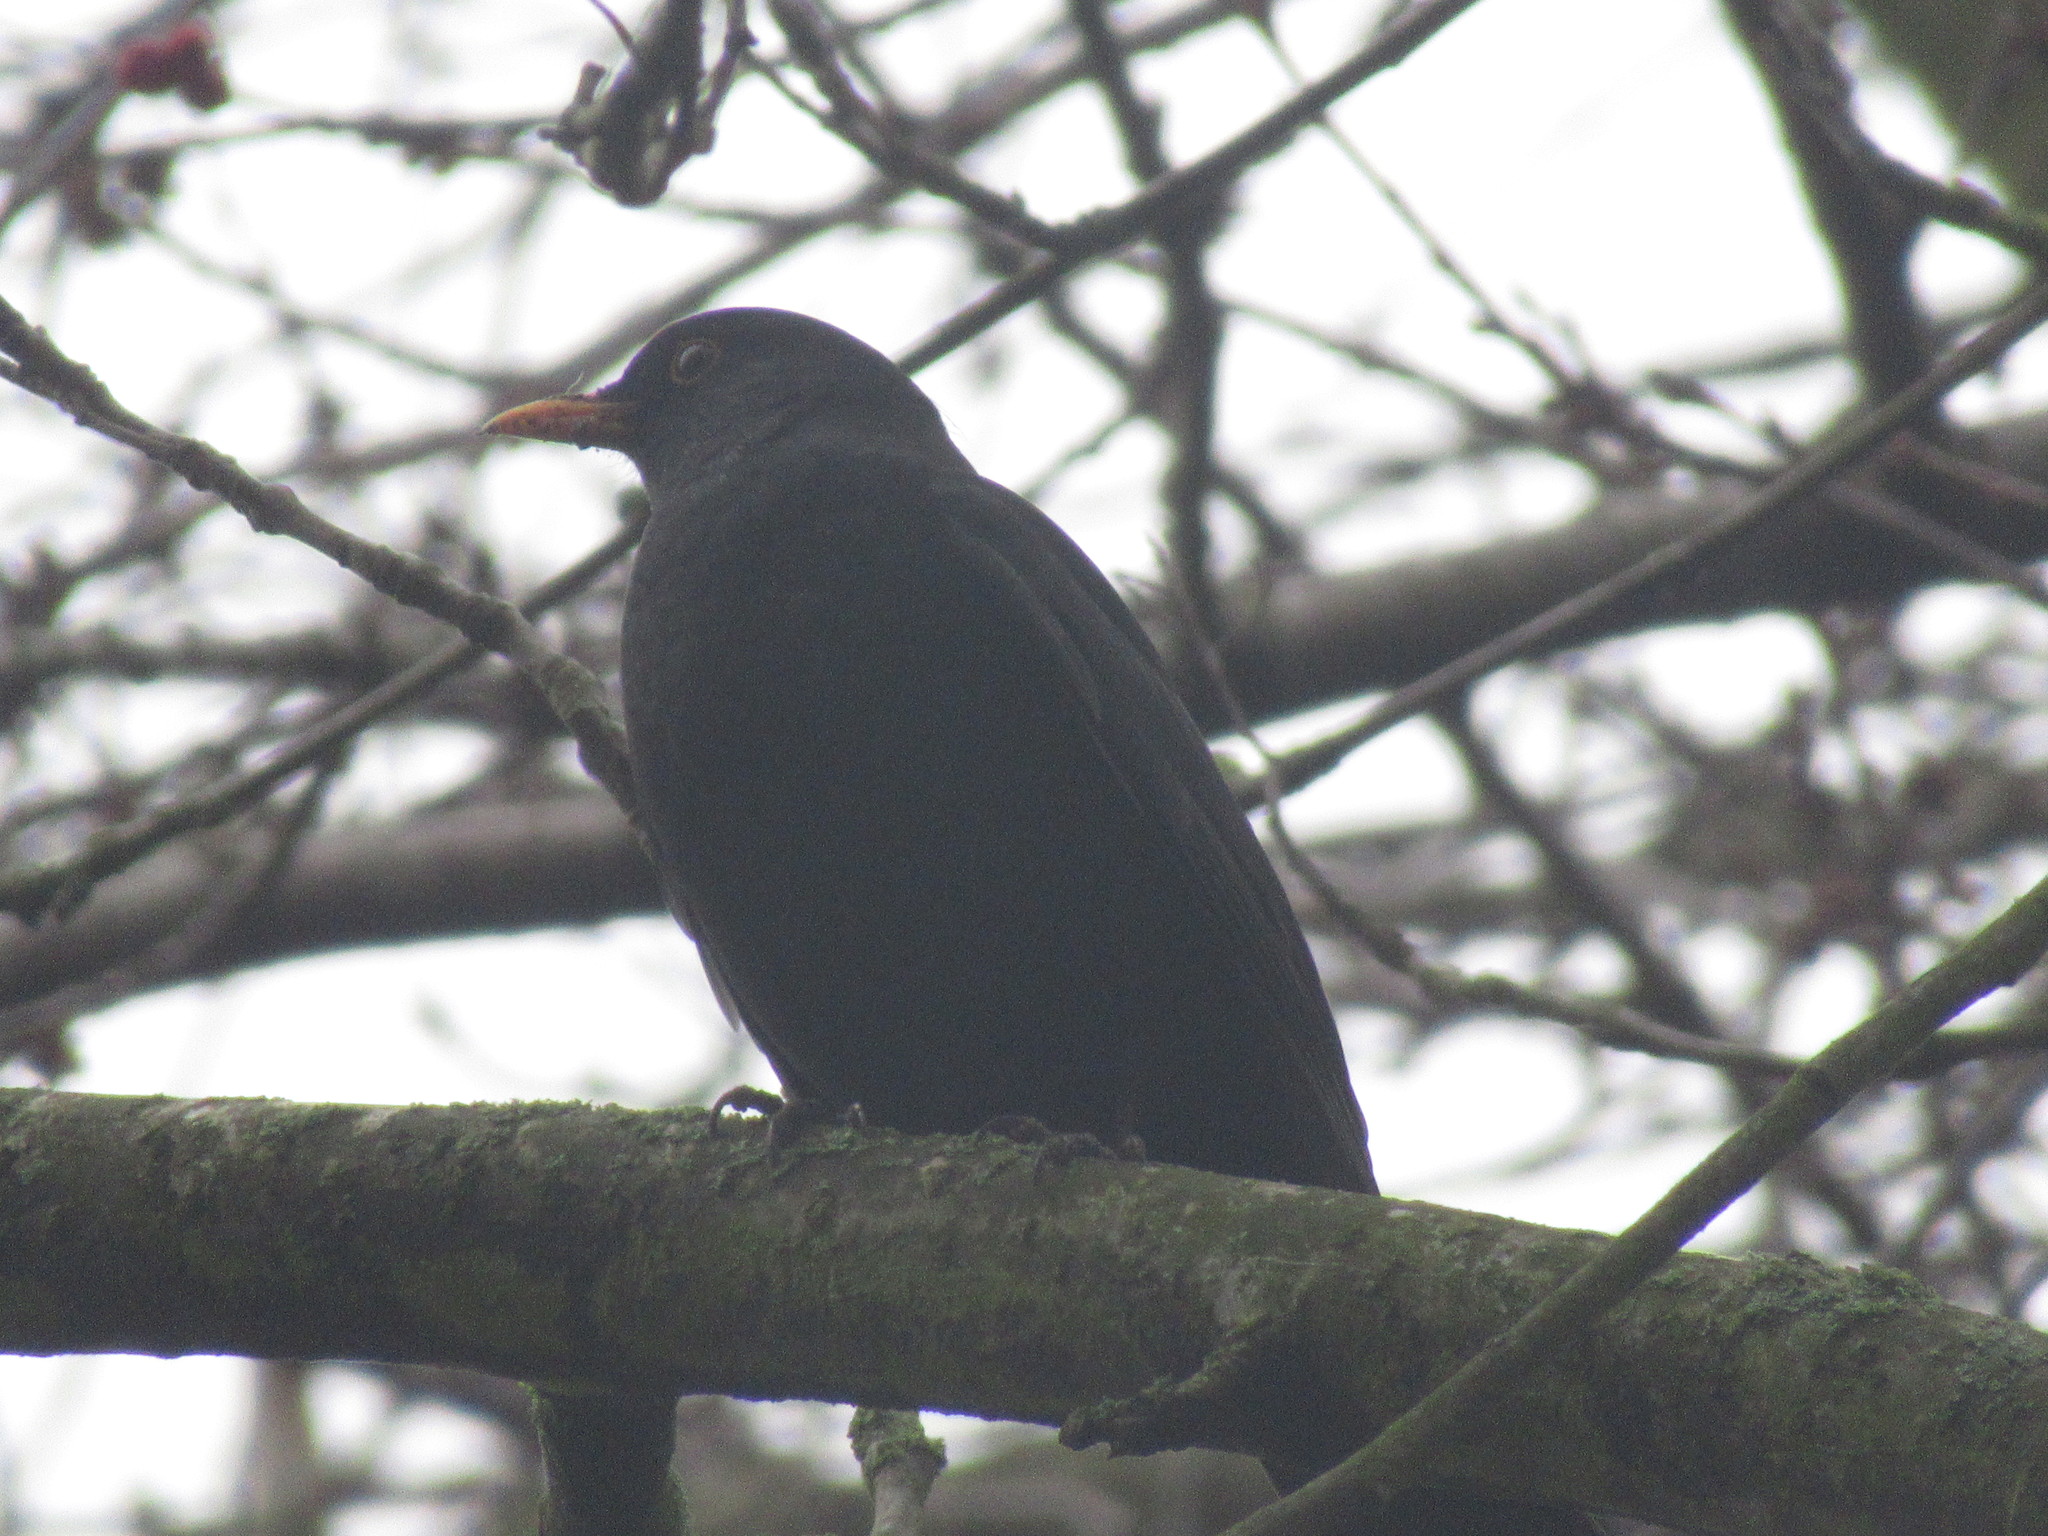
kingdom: Animalia
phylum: Chordata
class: Aves
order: Passeriformes
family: Turdidae
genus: Turdus
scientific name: Turdus merula
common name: Common blackbird
